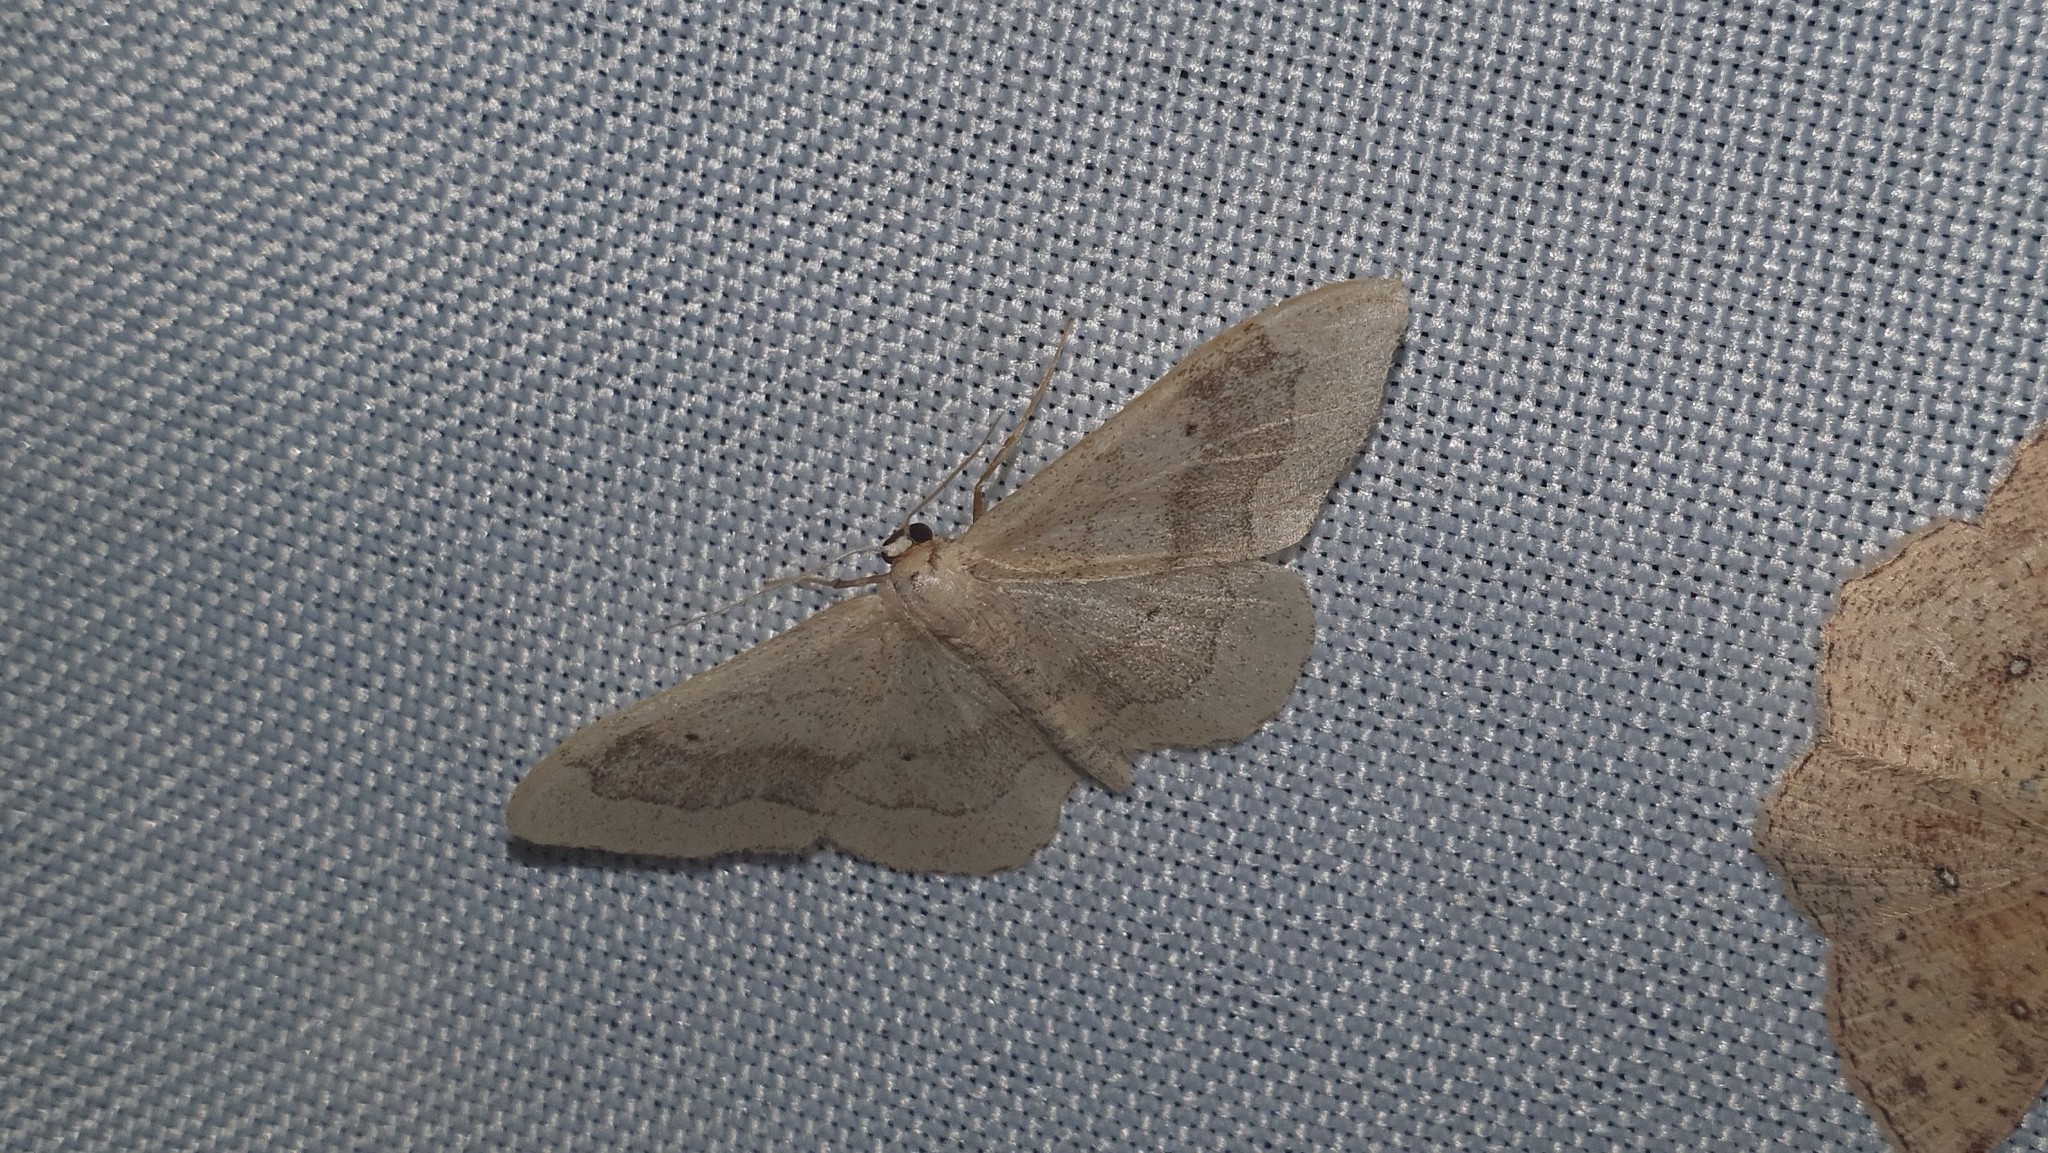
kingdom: Animalia
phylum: Arthropoda
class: Insecta
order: Lepidoptera
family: Geometridae
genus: Idaea
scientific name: Idaea aversata
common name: Riband wave
